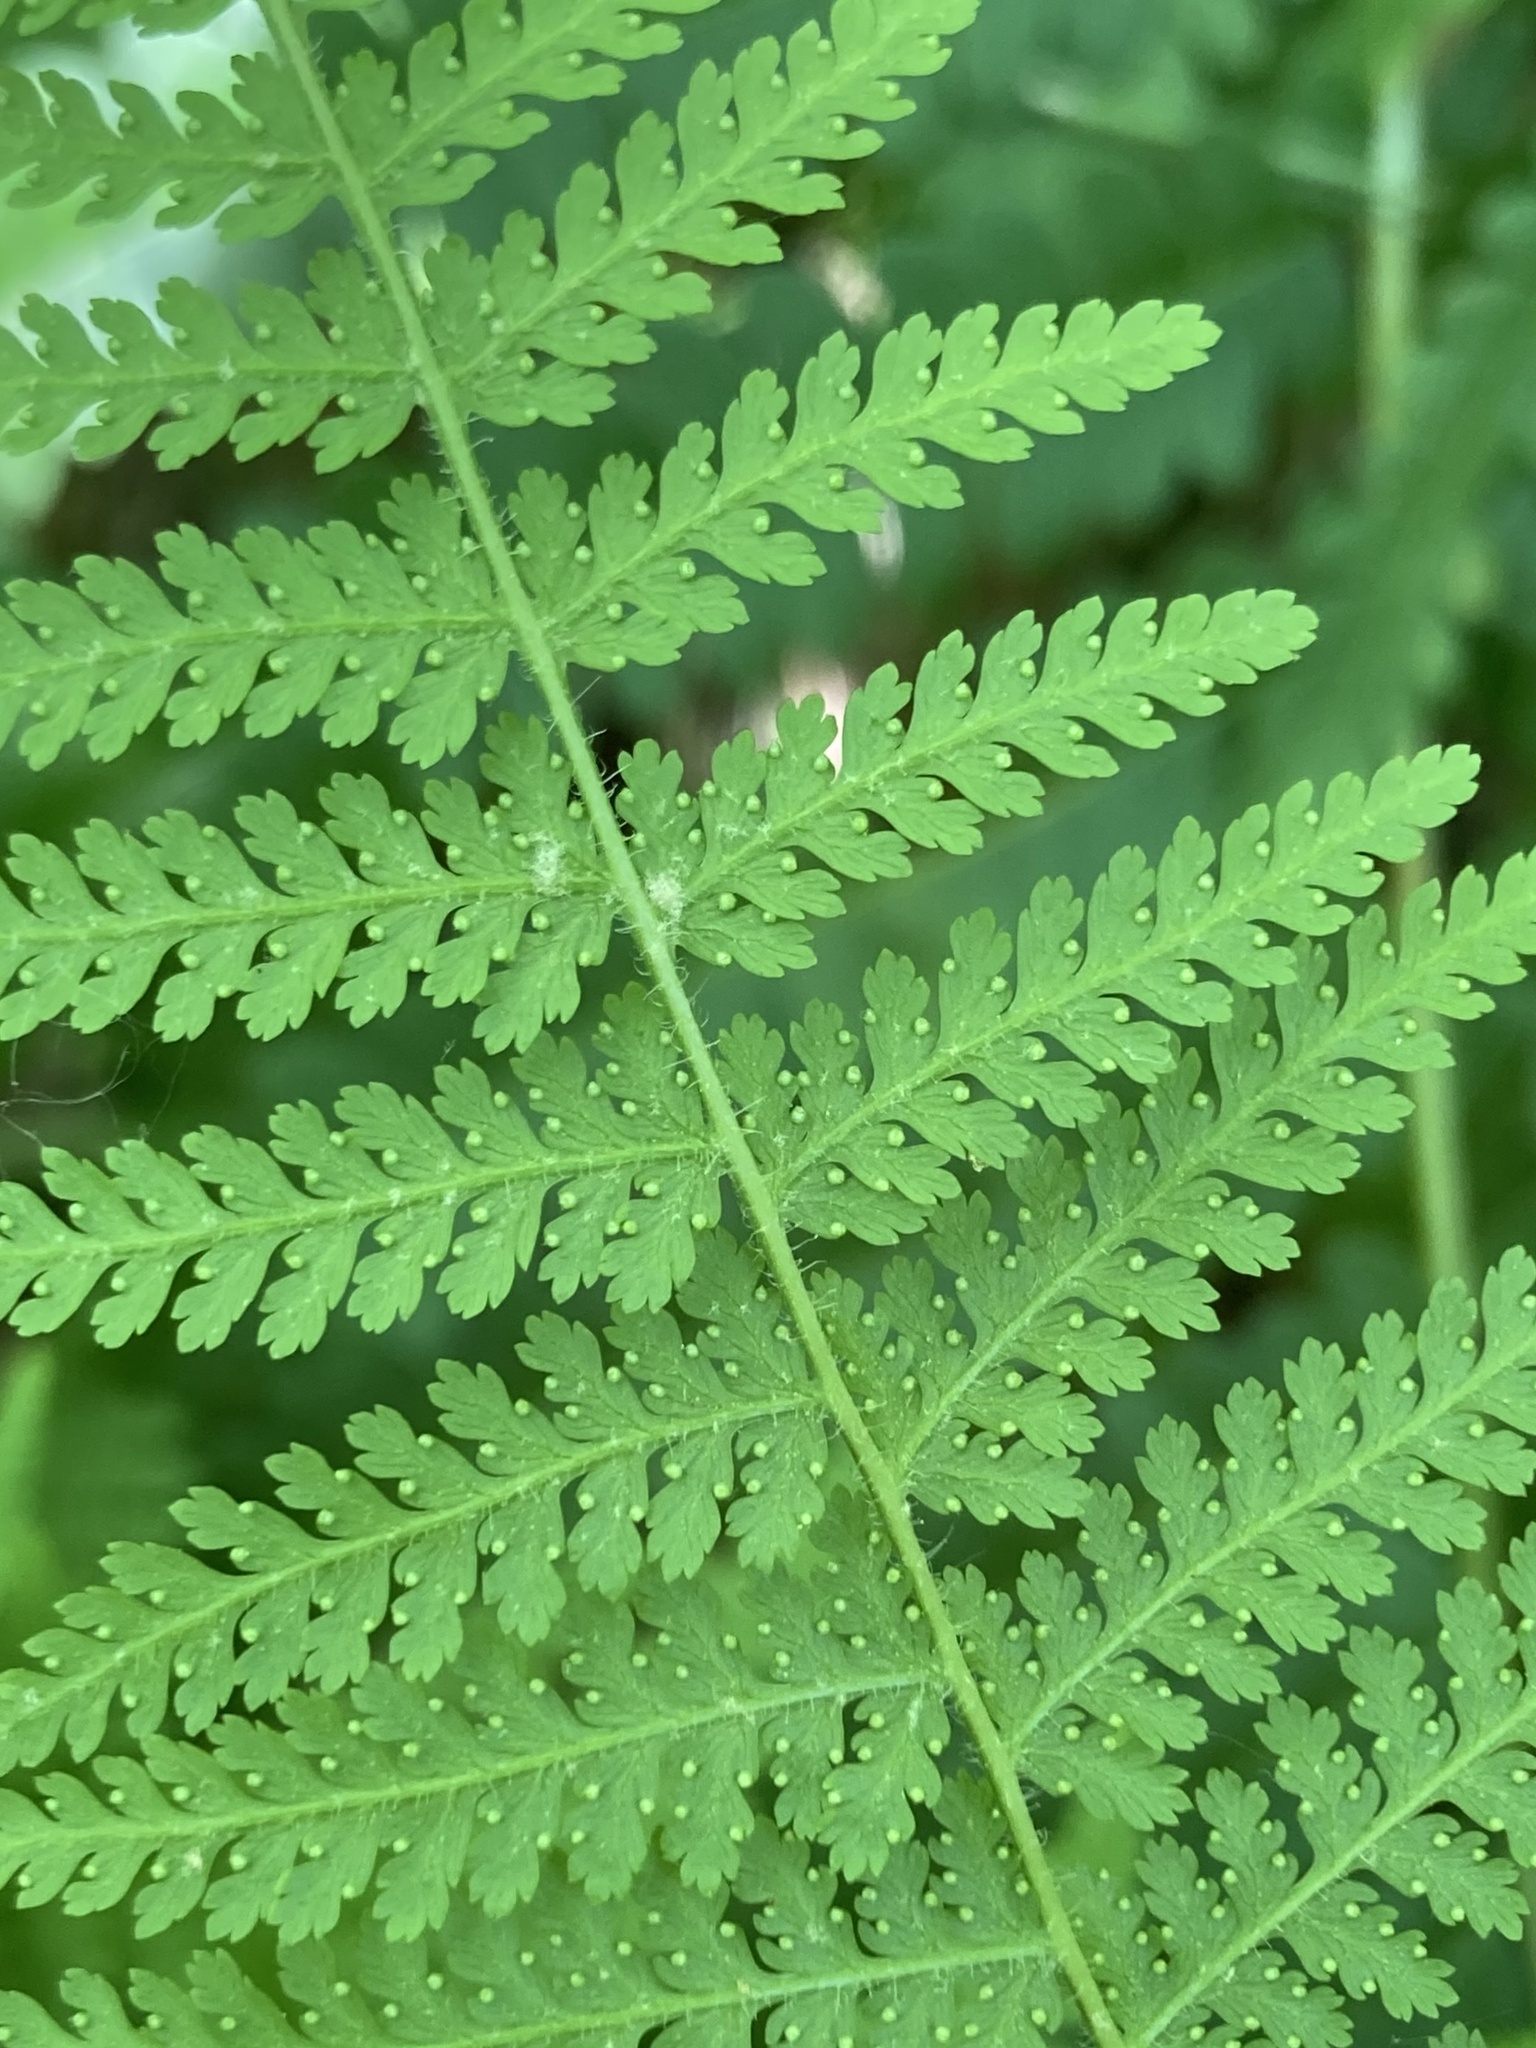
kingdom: Plantae
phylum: Tracheophyta
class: Polypodiopsida
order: Polypodiales
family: Dennstaedtiaceae
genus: Sitobolium
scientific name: Sitobolium punctilobum
